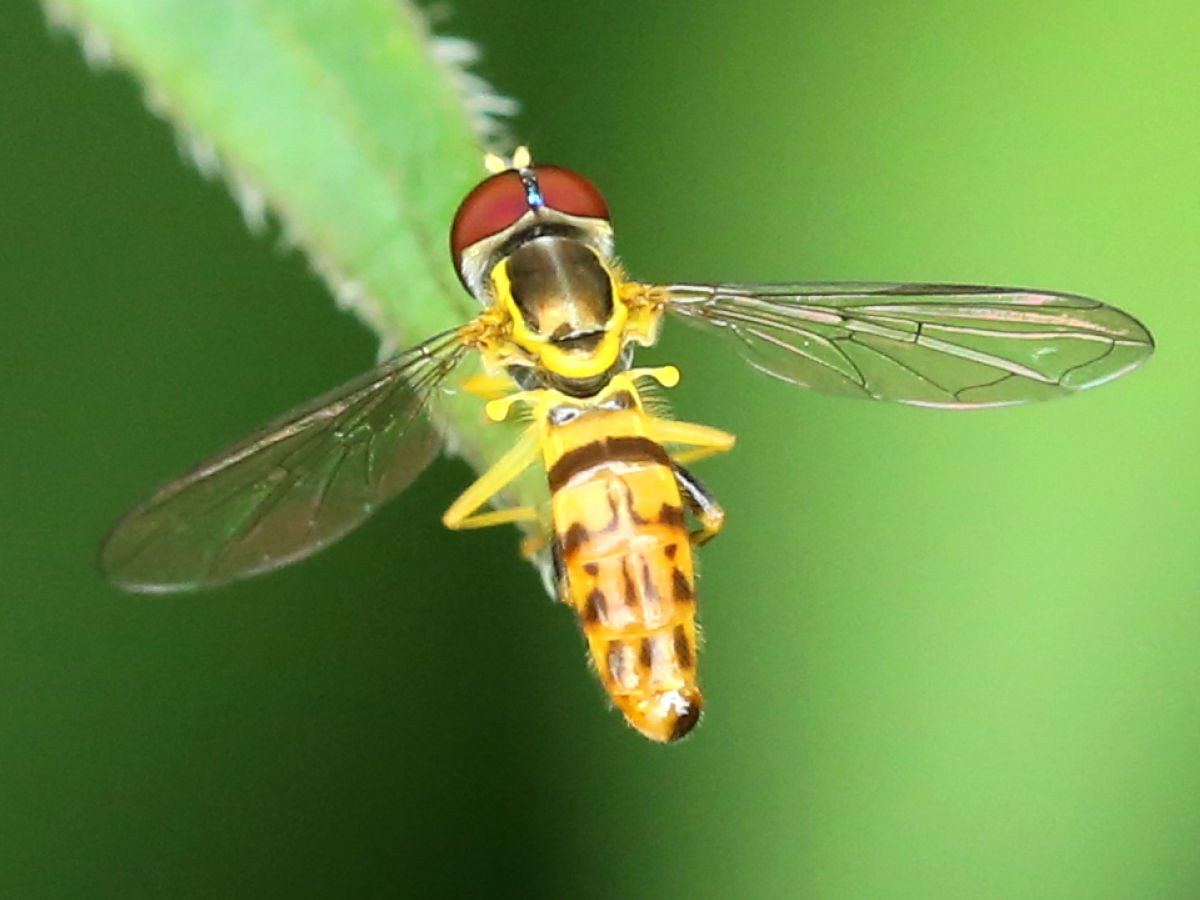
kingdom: Animalia
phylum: Arthropoda
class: Insecta
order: Diptera
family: Syrphidae
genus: Toxomerus
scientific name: Toxomerus geminatus
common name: Eastern calligrapher
